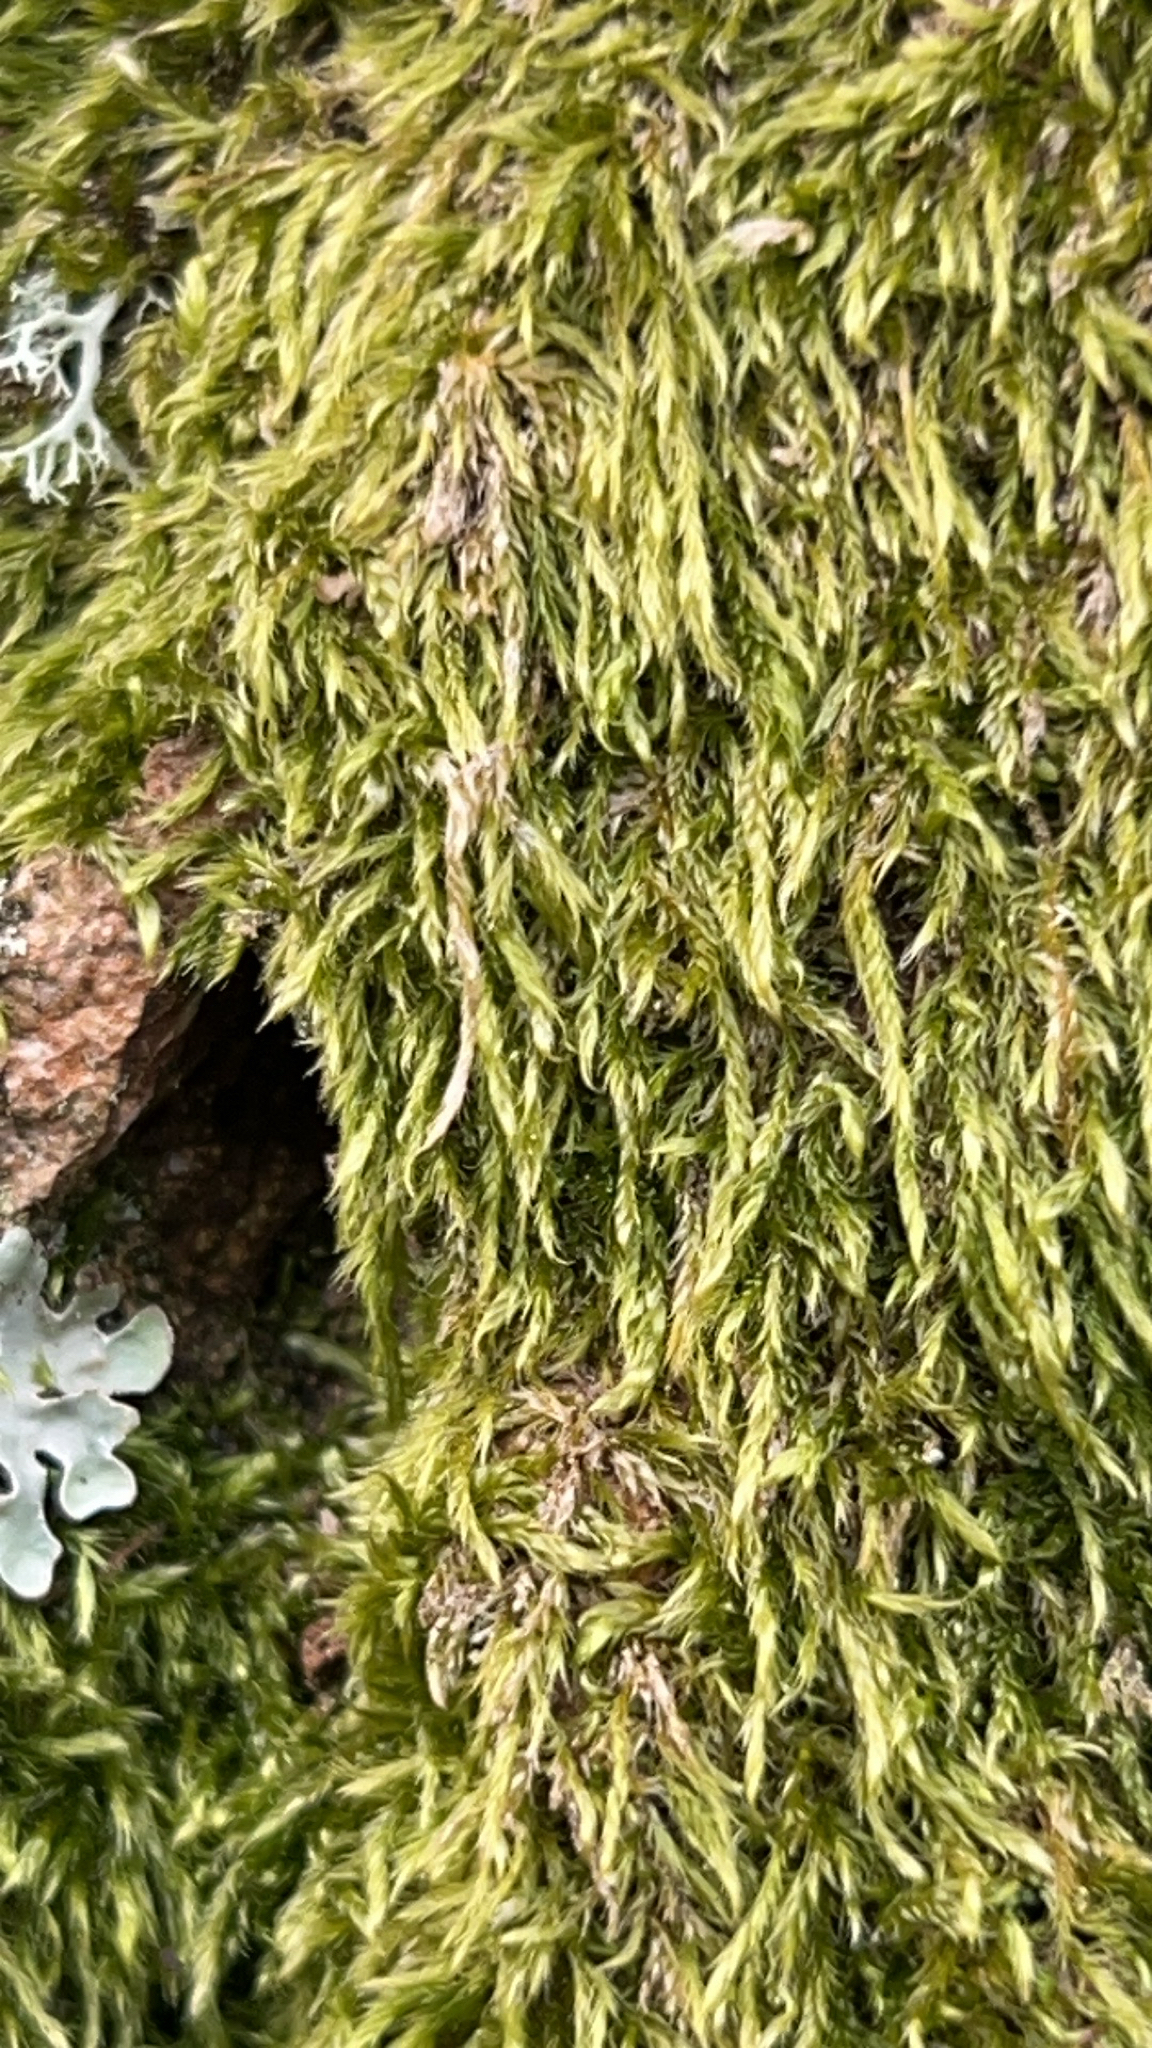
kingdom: Plantae
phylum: Bryophyta
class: Bryopsida
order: Hypnales
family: Hypnaceae
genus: Hypnum
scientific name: Hypnum cupressiforme
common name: Cypress-leaved plait-moss
